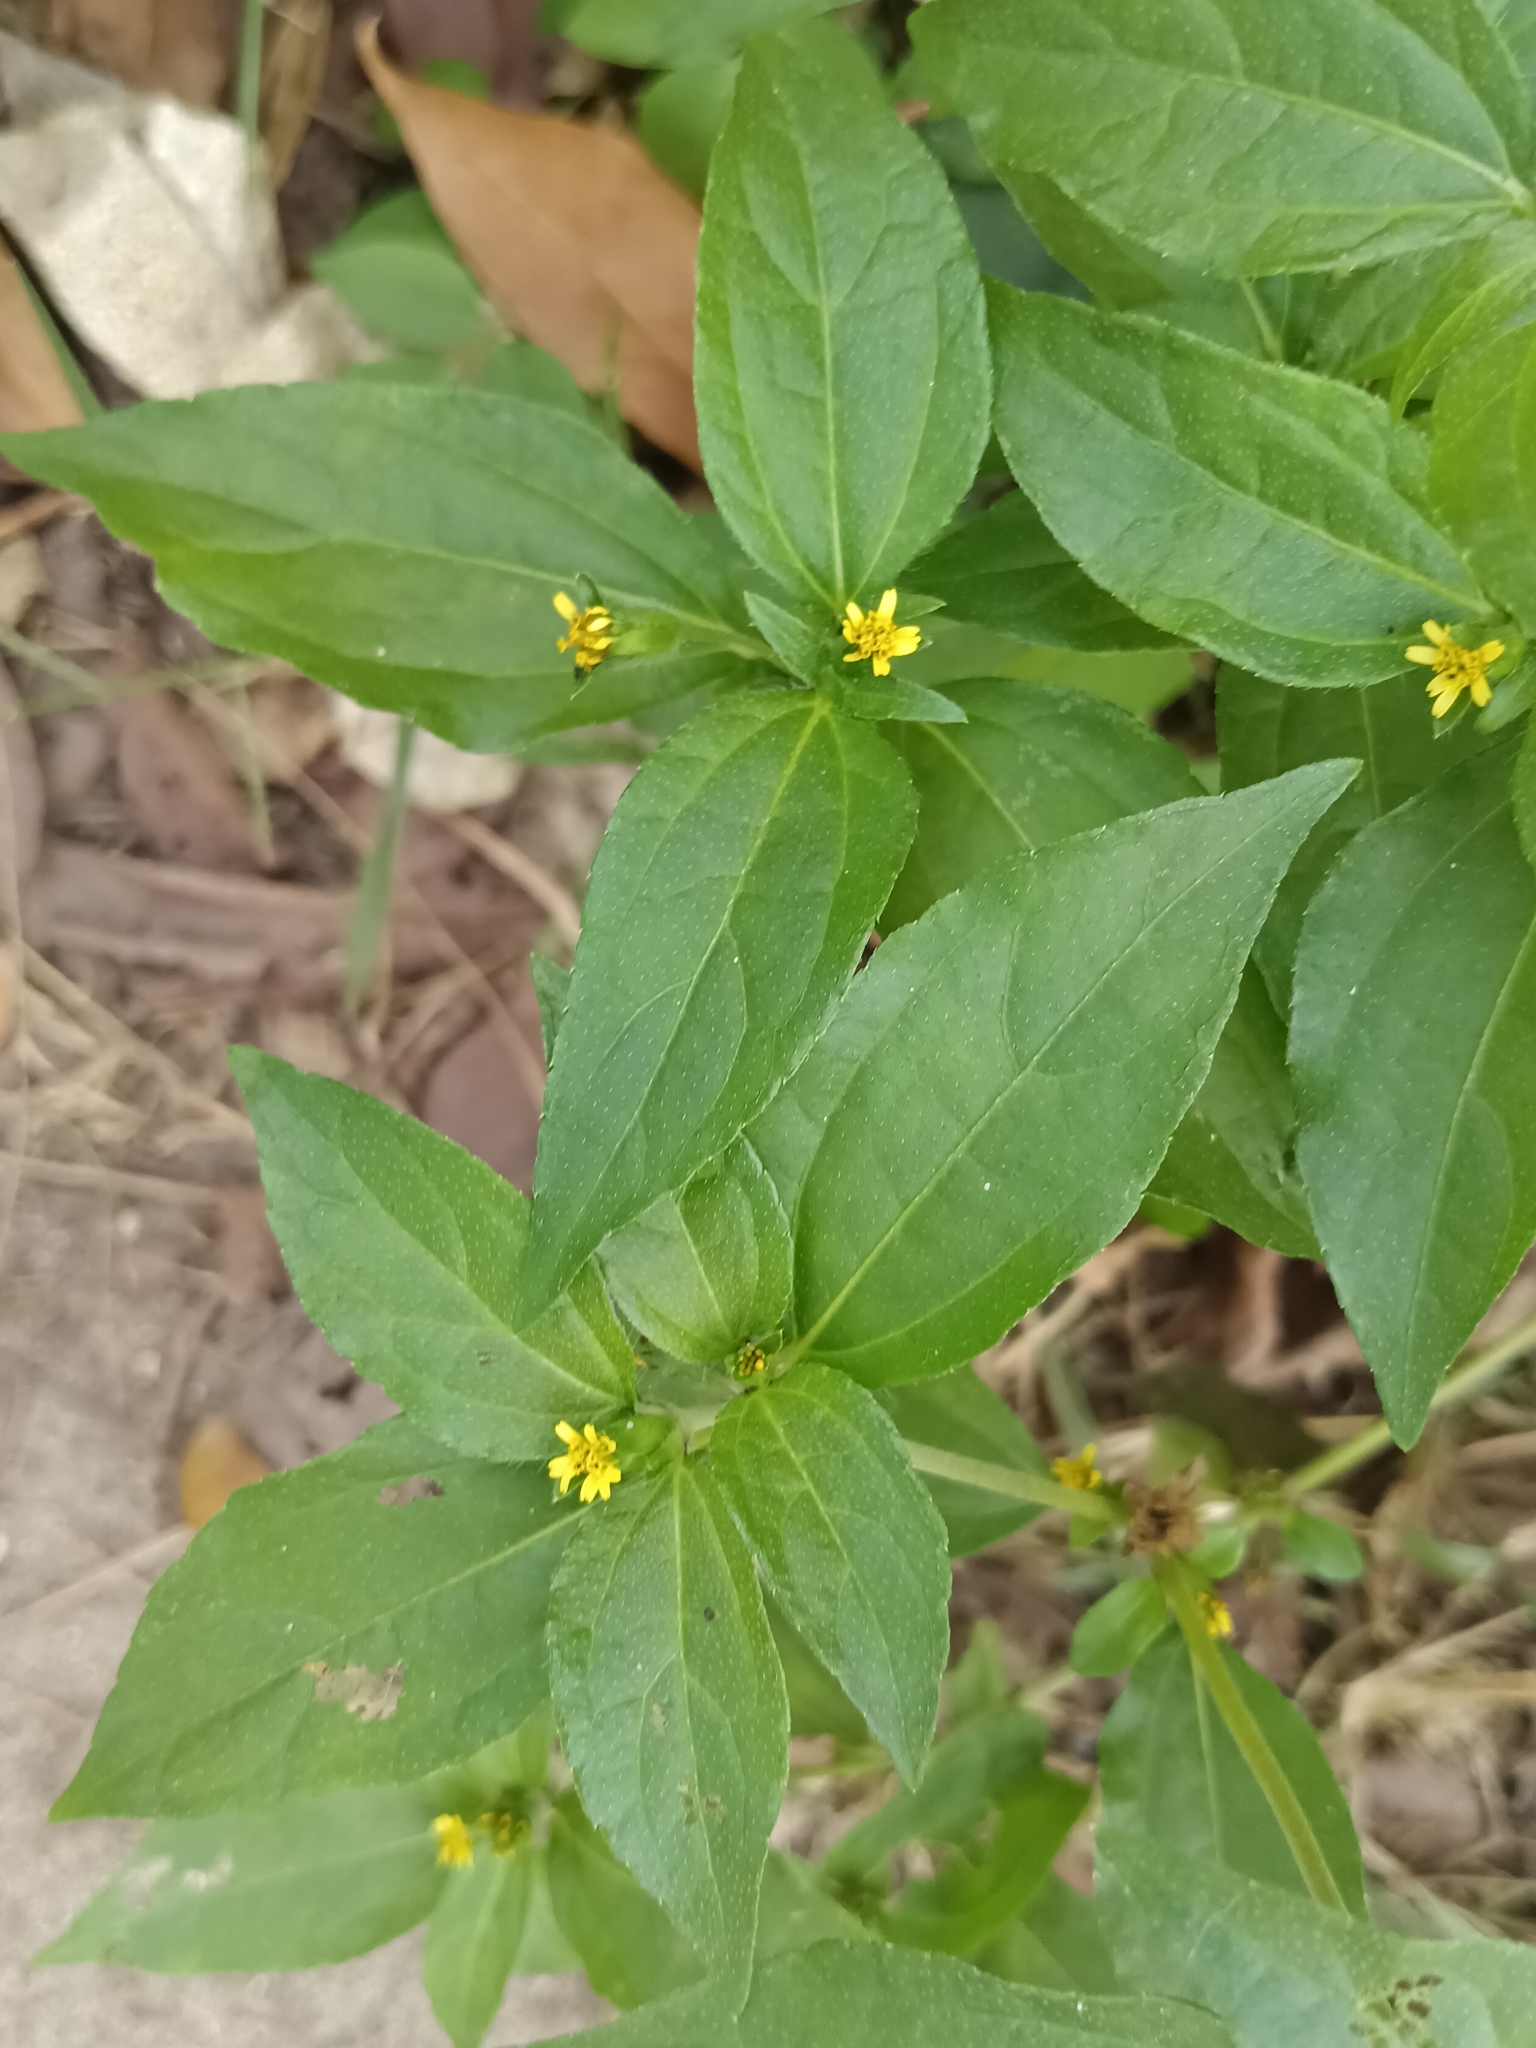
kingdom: Plantae
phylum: Tracheophyta
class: Magnoliopsida
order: Asterales
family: Asteraceae
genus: Synedrella
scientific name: Synedrella nodiflora
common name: Nodeweed
